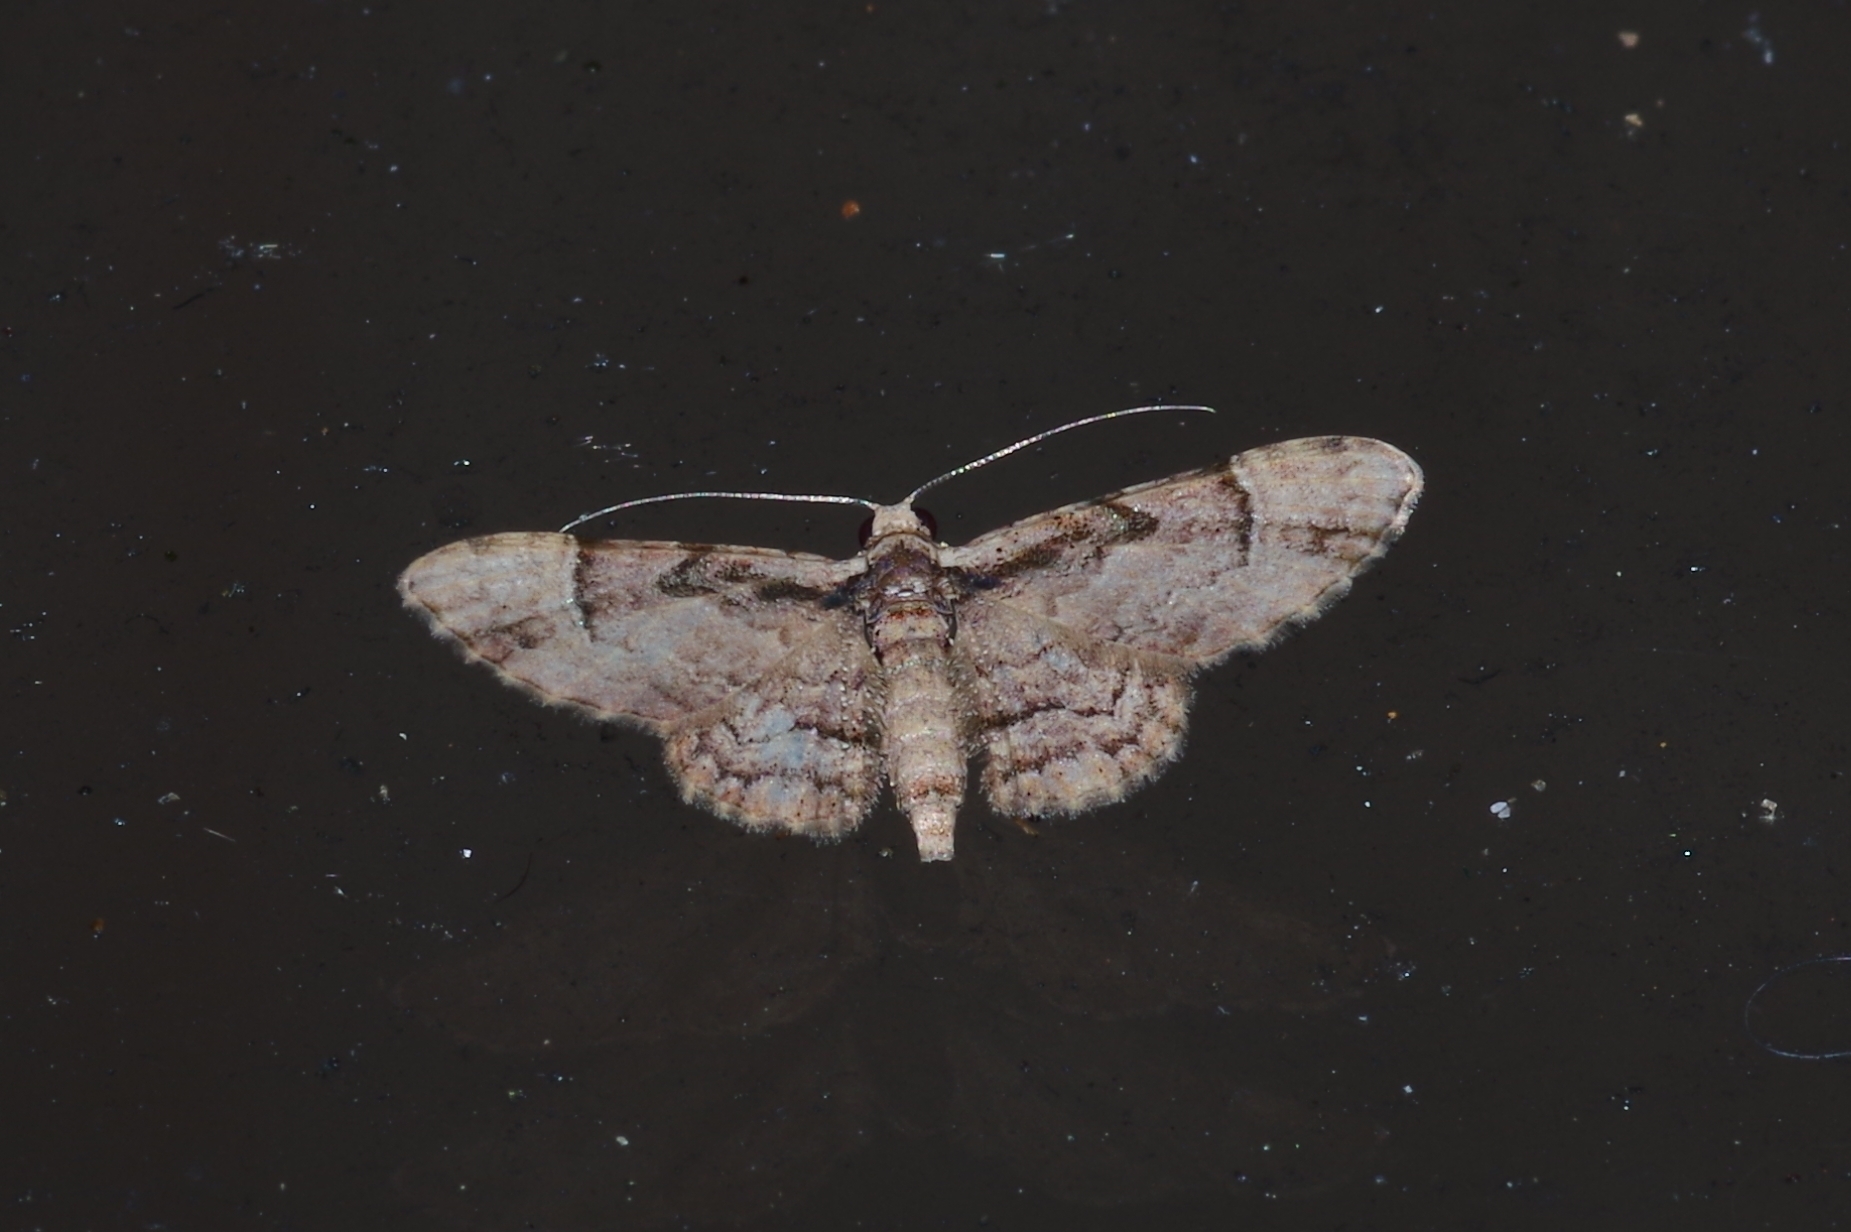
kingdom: Animalia
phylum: Arthropoda
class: Insecta
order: Lepidoptera
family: Geometridae
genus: Gymnoscelis
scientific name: Gymnoscelis tristrigosa
